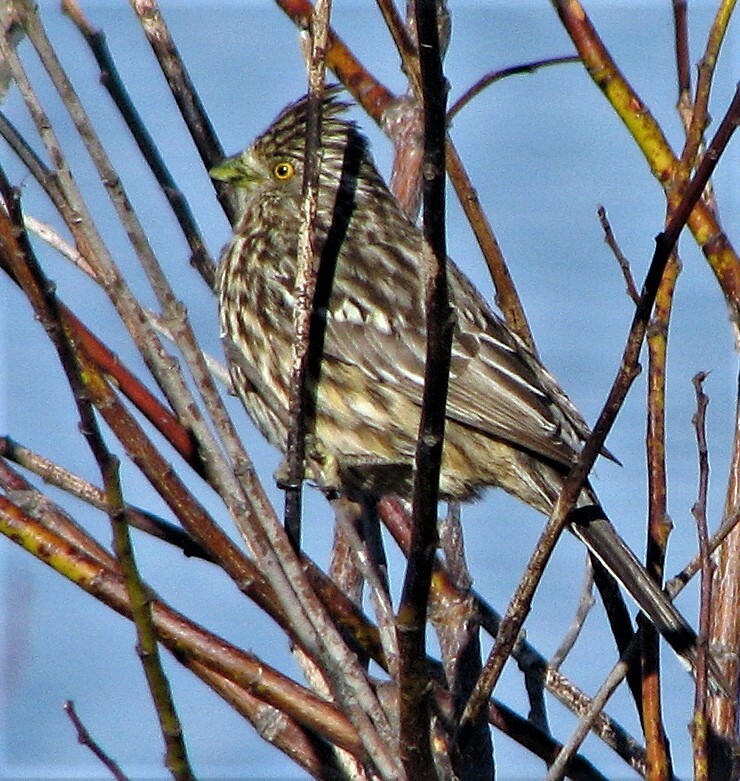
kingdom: Animalia
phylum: Chordata
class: Aves
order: Passeriformes
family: Cotingidae
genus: Phytotoma
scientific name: Phytotoma rutila
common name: White-tipped plantcutter
